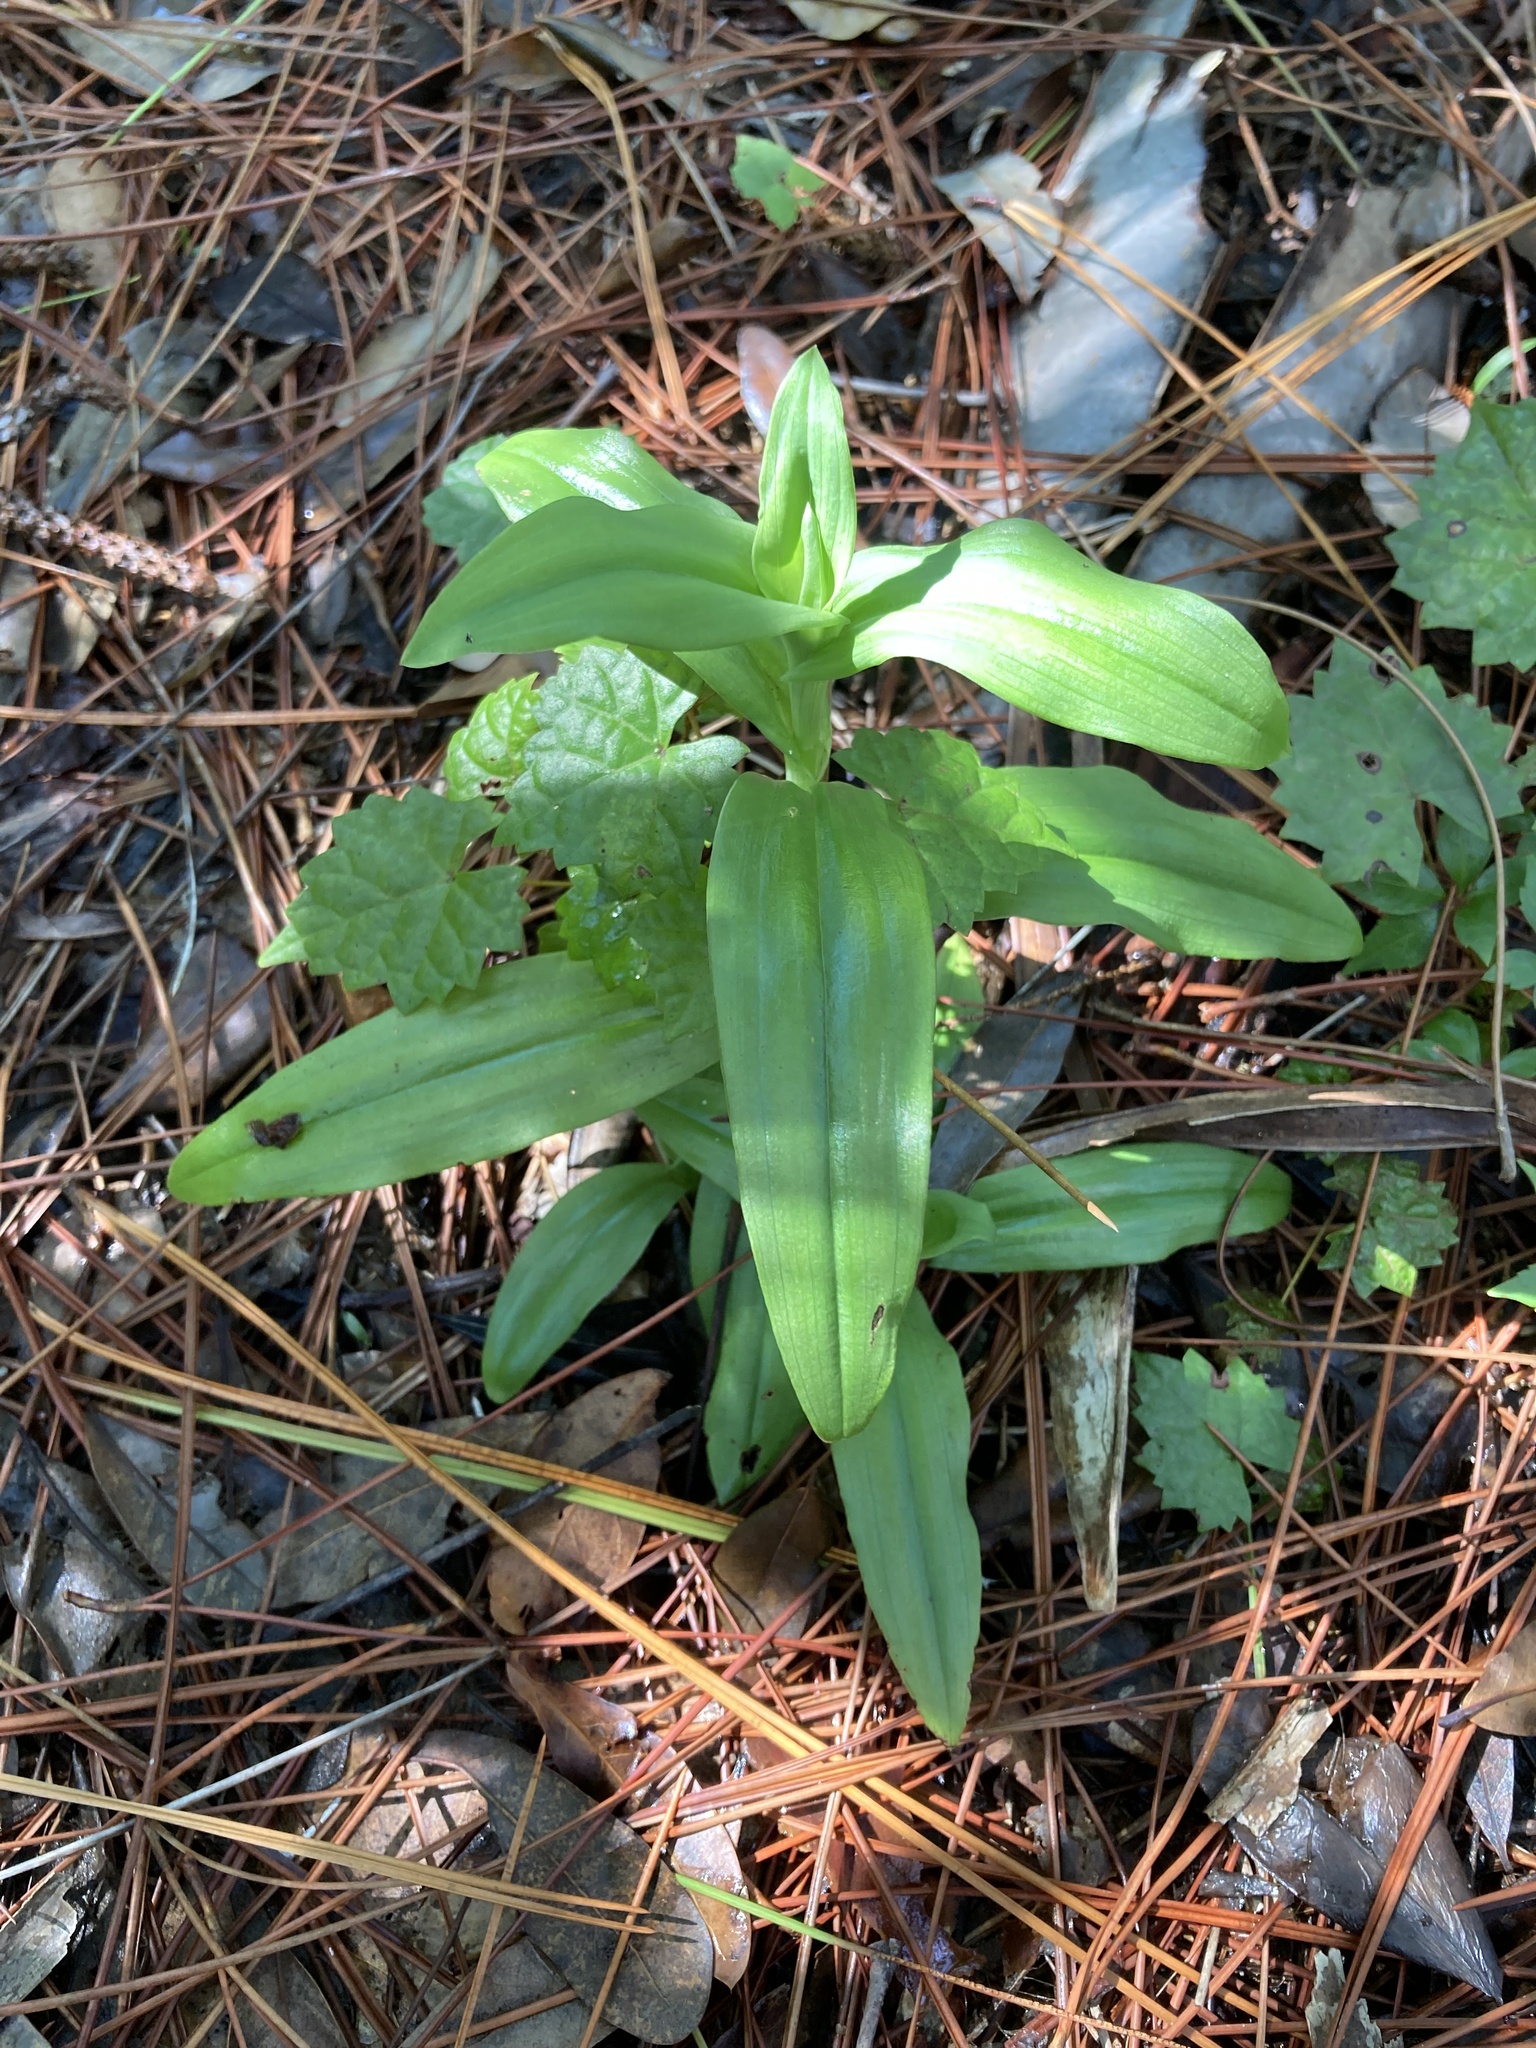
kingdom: Plantae
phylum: Tracheophyta
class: Liliopsida
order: Asparagales
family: Orchidaceae
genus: Habenaria
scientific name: Habenaria floribunda
